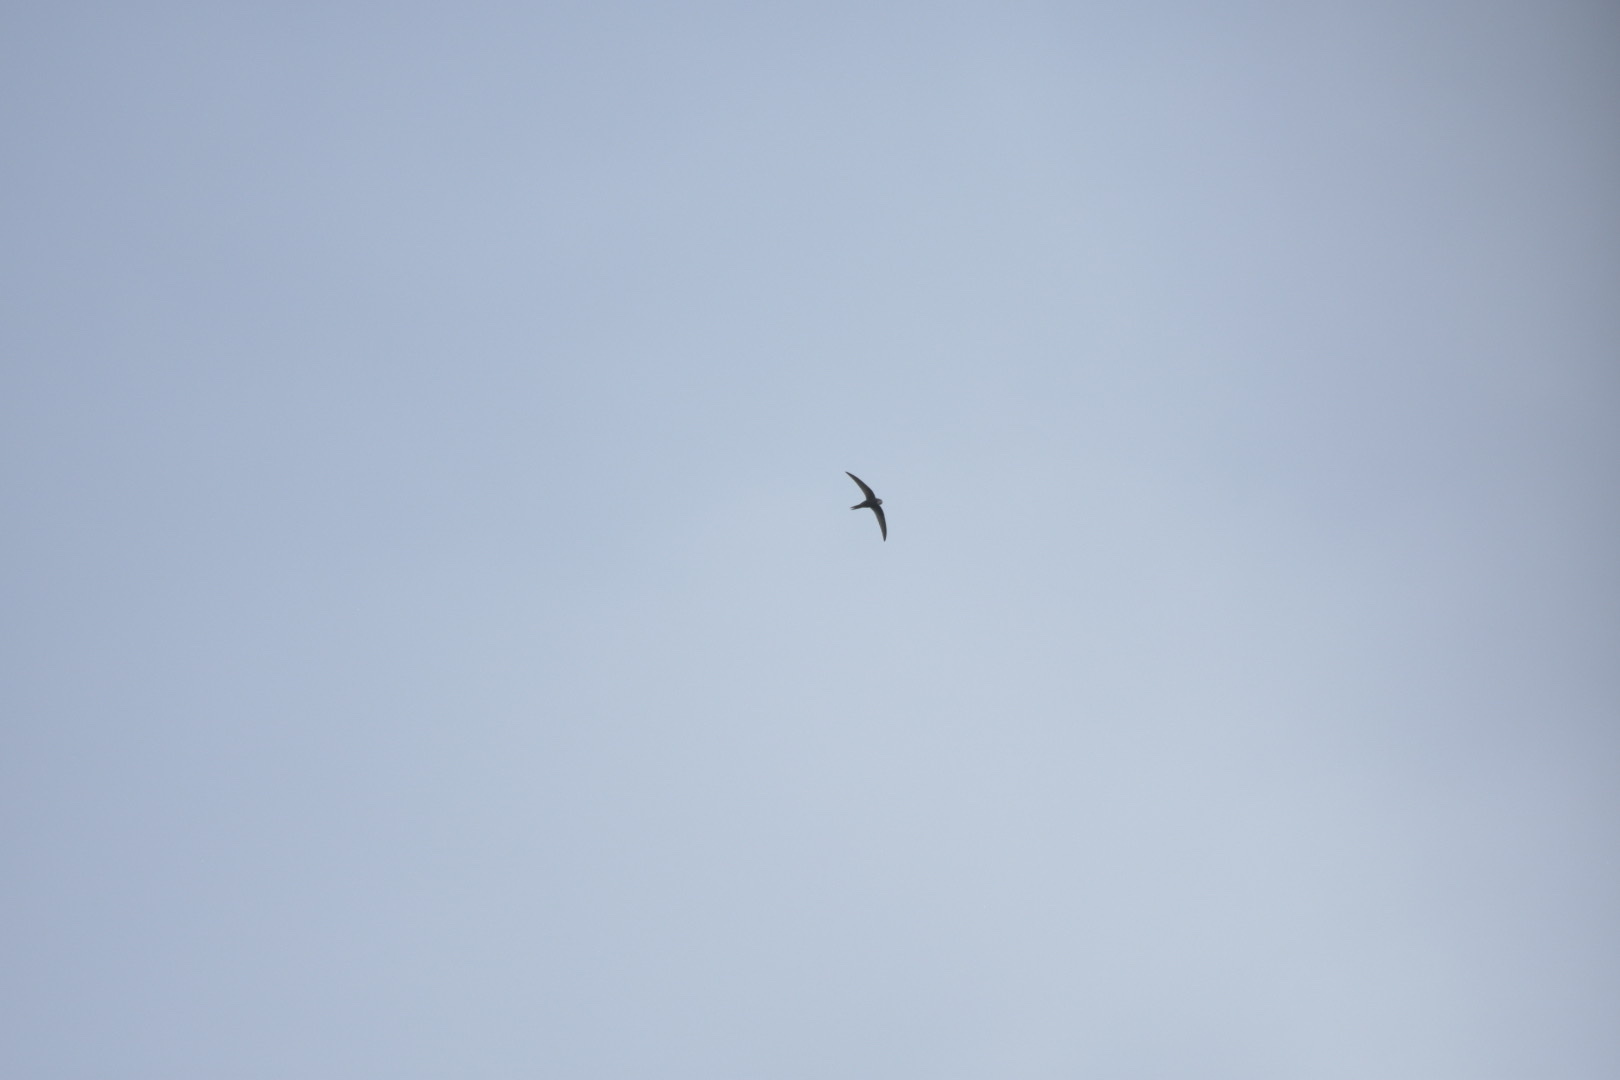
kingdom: Animalia
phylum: Chordata
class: Aves
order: Apodiformes
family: Apodidae
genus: Apus
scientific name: Apus apus
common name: Common swift
